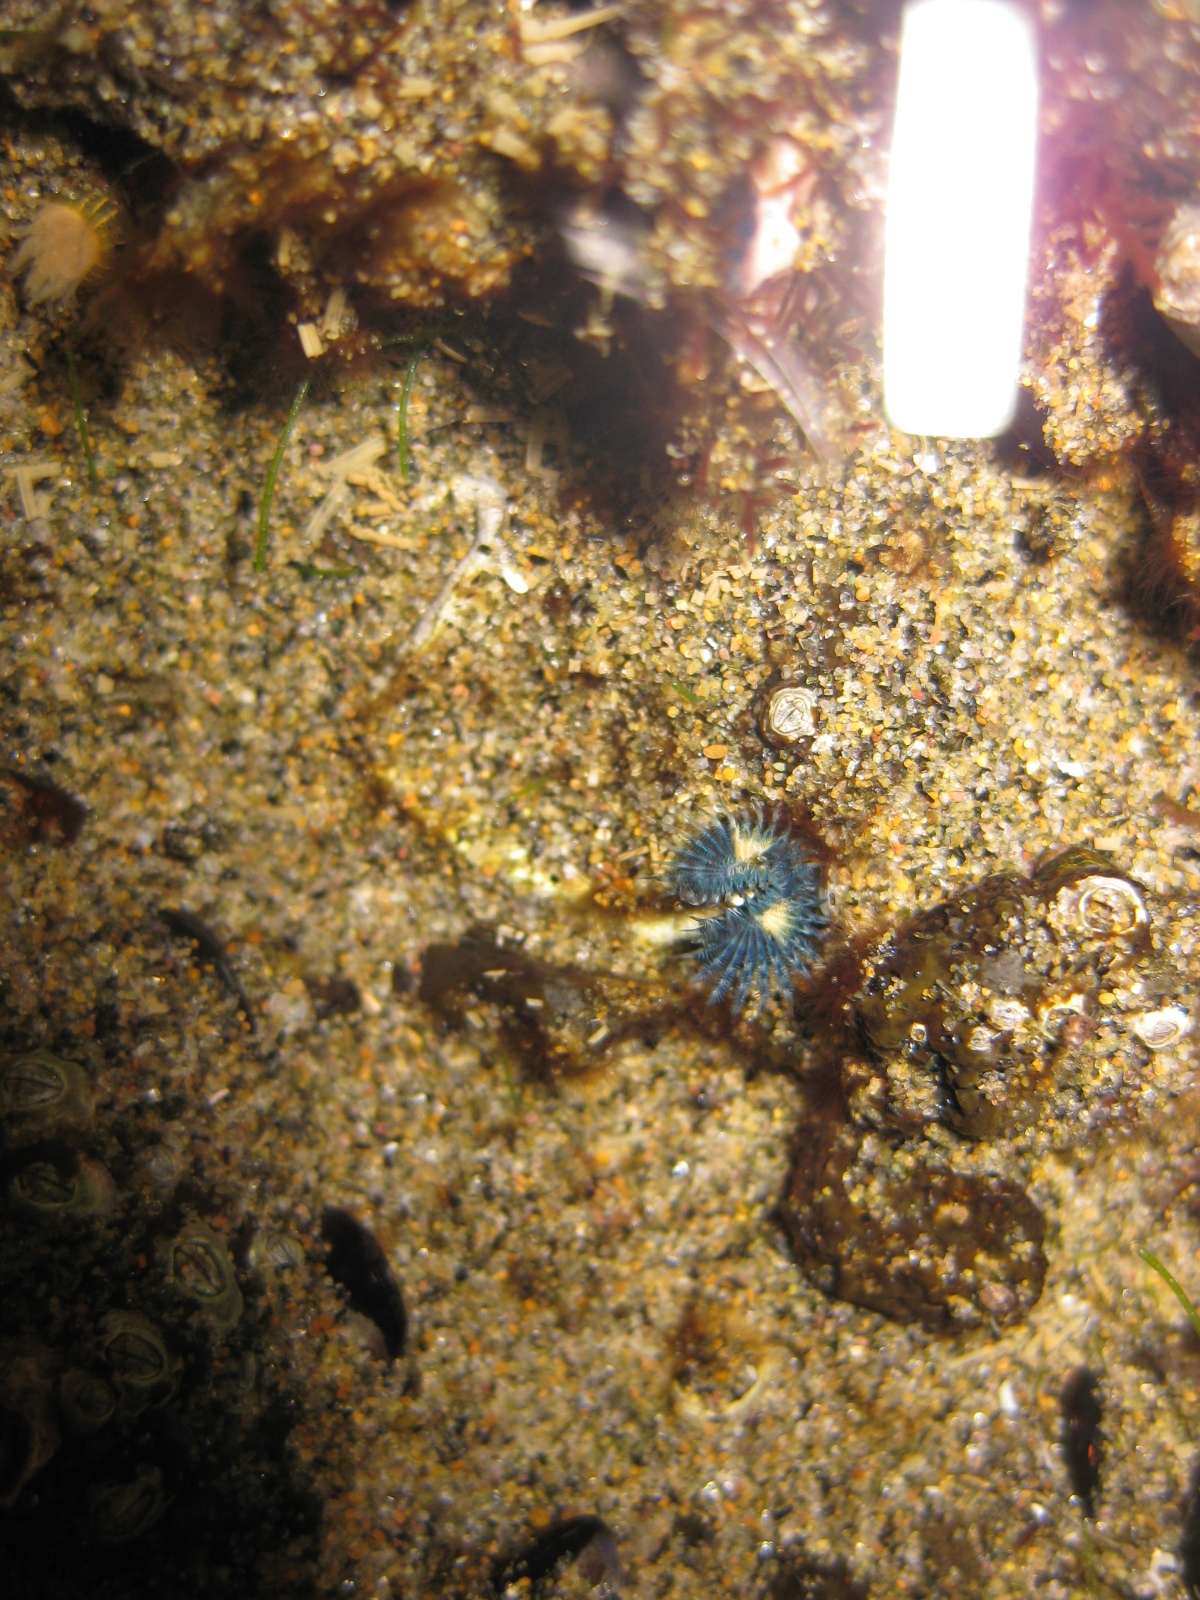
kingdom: Animalia
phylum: Annelida
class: Polychaeta
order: Sabellida
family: Serpulidae
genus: Spirobranchus
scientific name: Spirobranchus cariniferus
